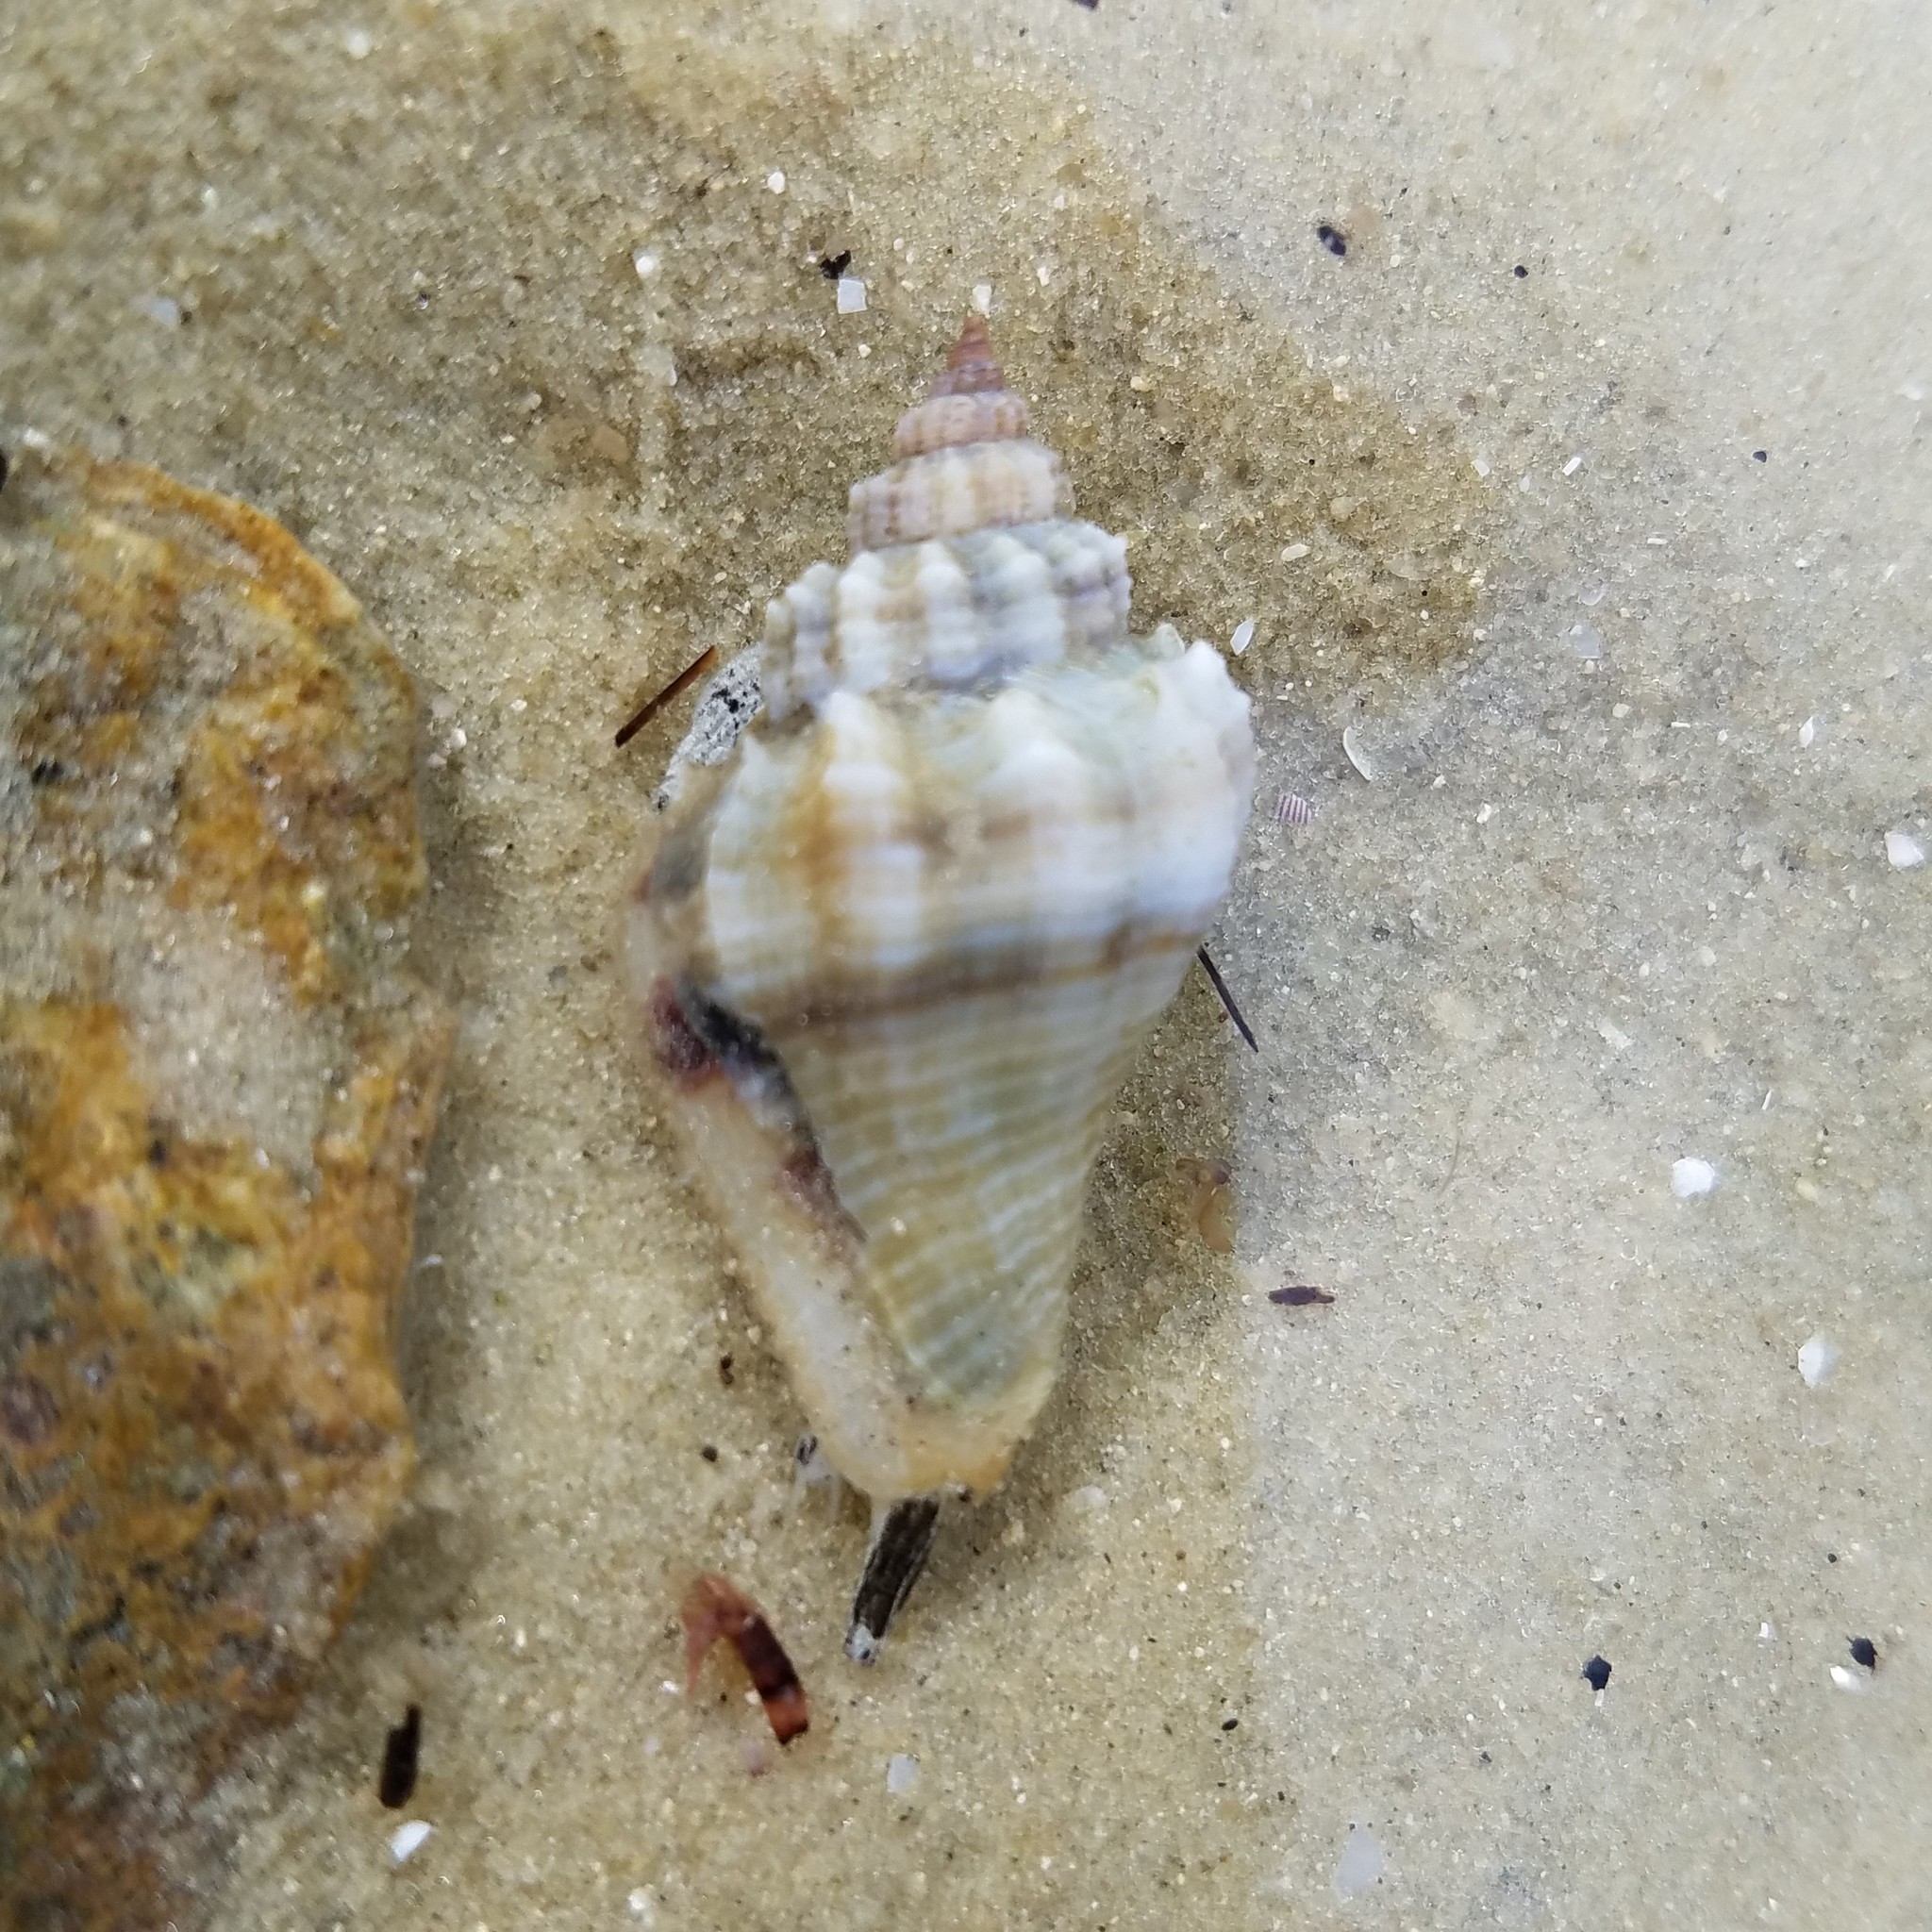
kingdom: Animalia
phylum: Mollusca
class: Gastropoda
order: Neogastropoda
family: Melongenidae
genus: Melongena
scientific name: Melongena corona
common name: American crown conch
